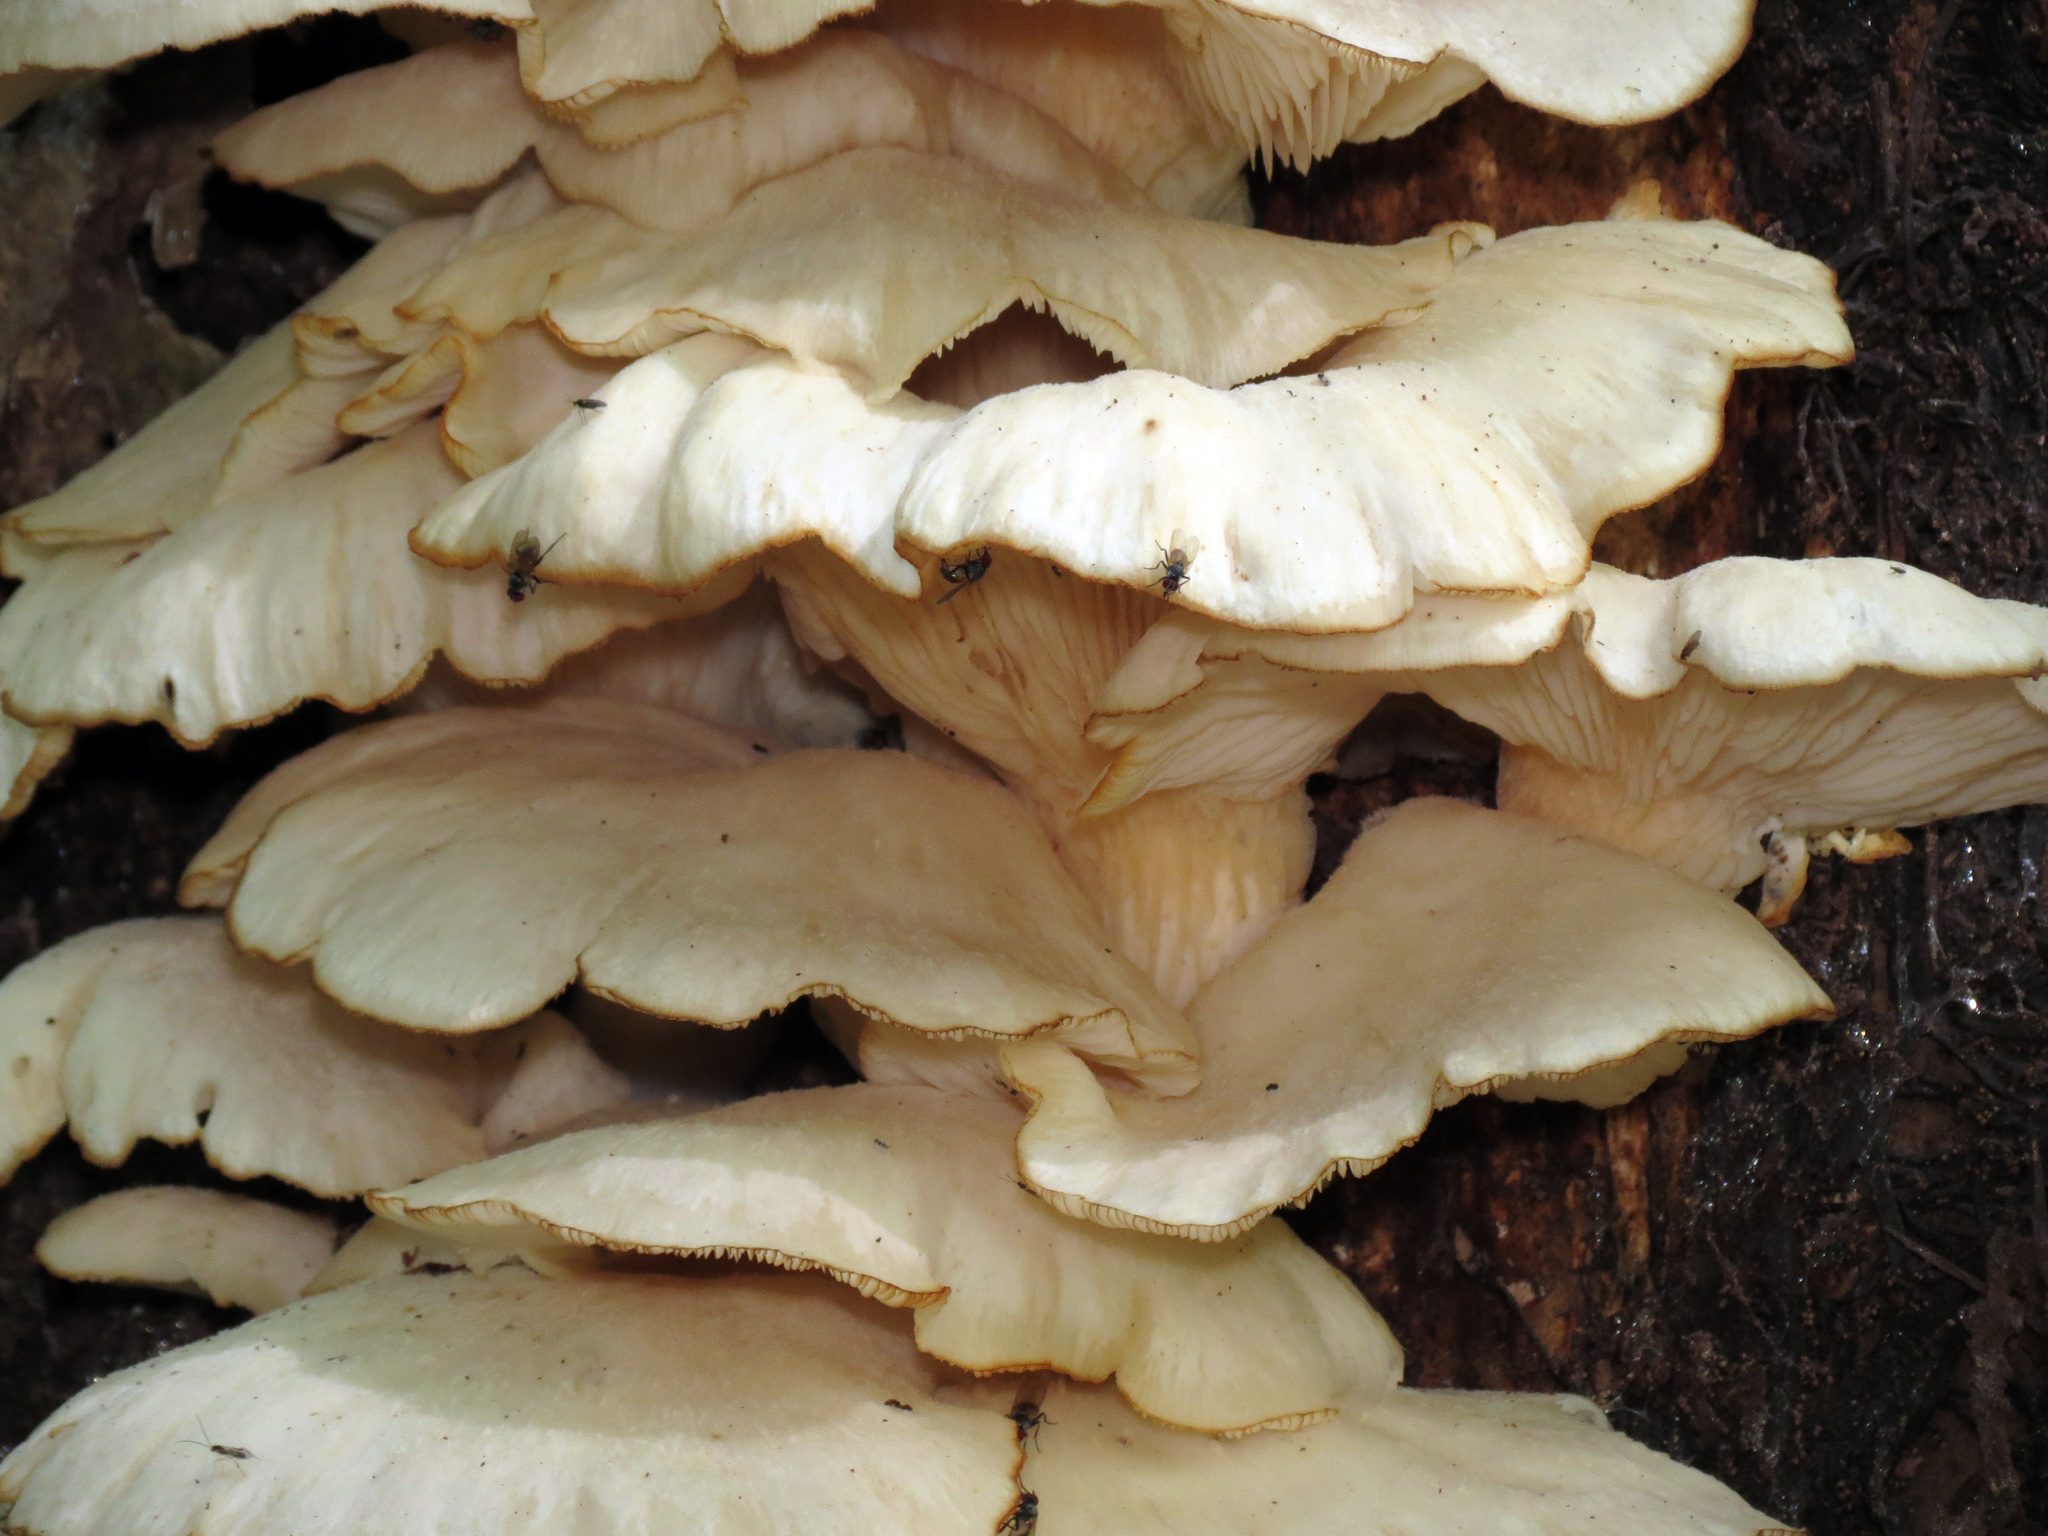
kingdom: Fungi
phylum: Basidiomycota
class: Agaricomycetes
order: Agaricales
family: Pleurotaceae
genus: Pleurotus
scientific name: Pleurotus ostreatus
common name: Oyster mushroom
